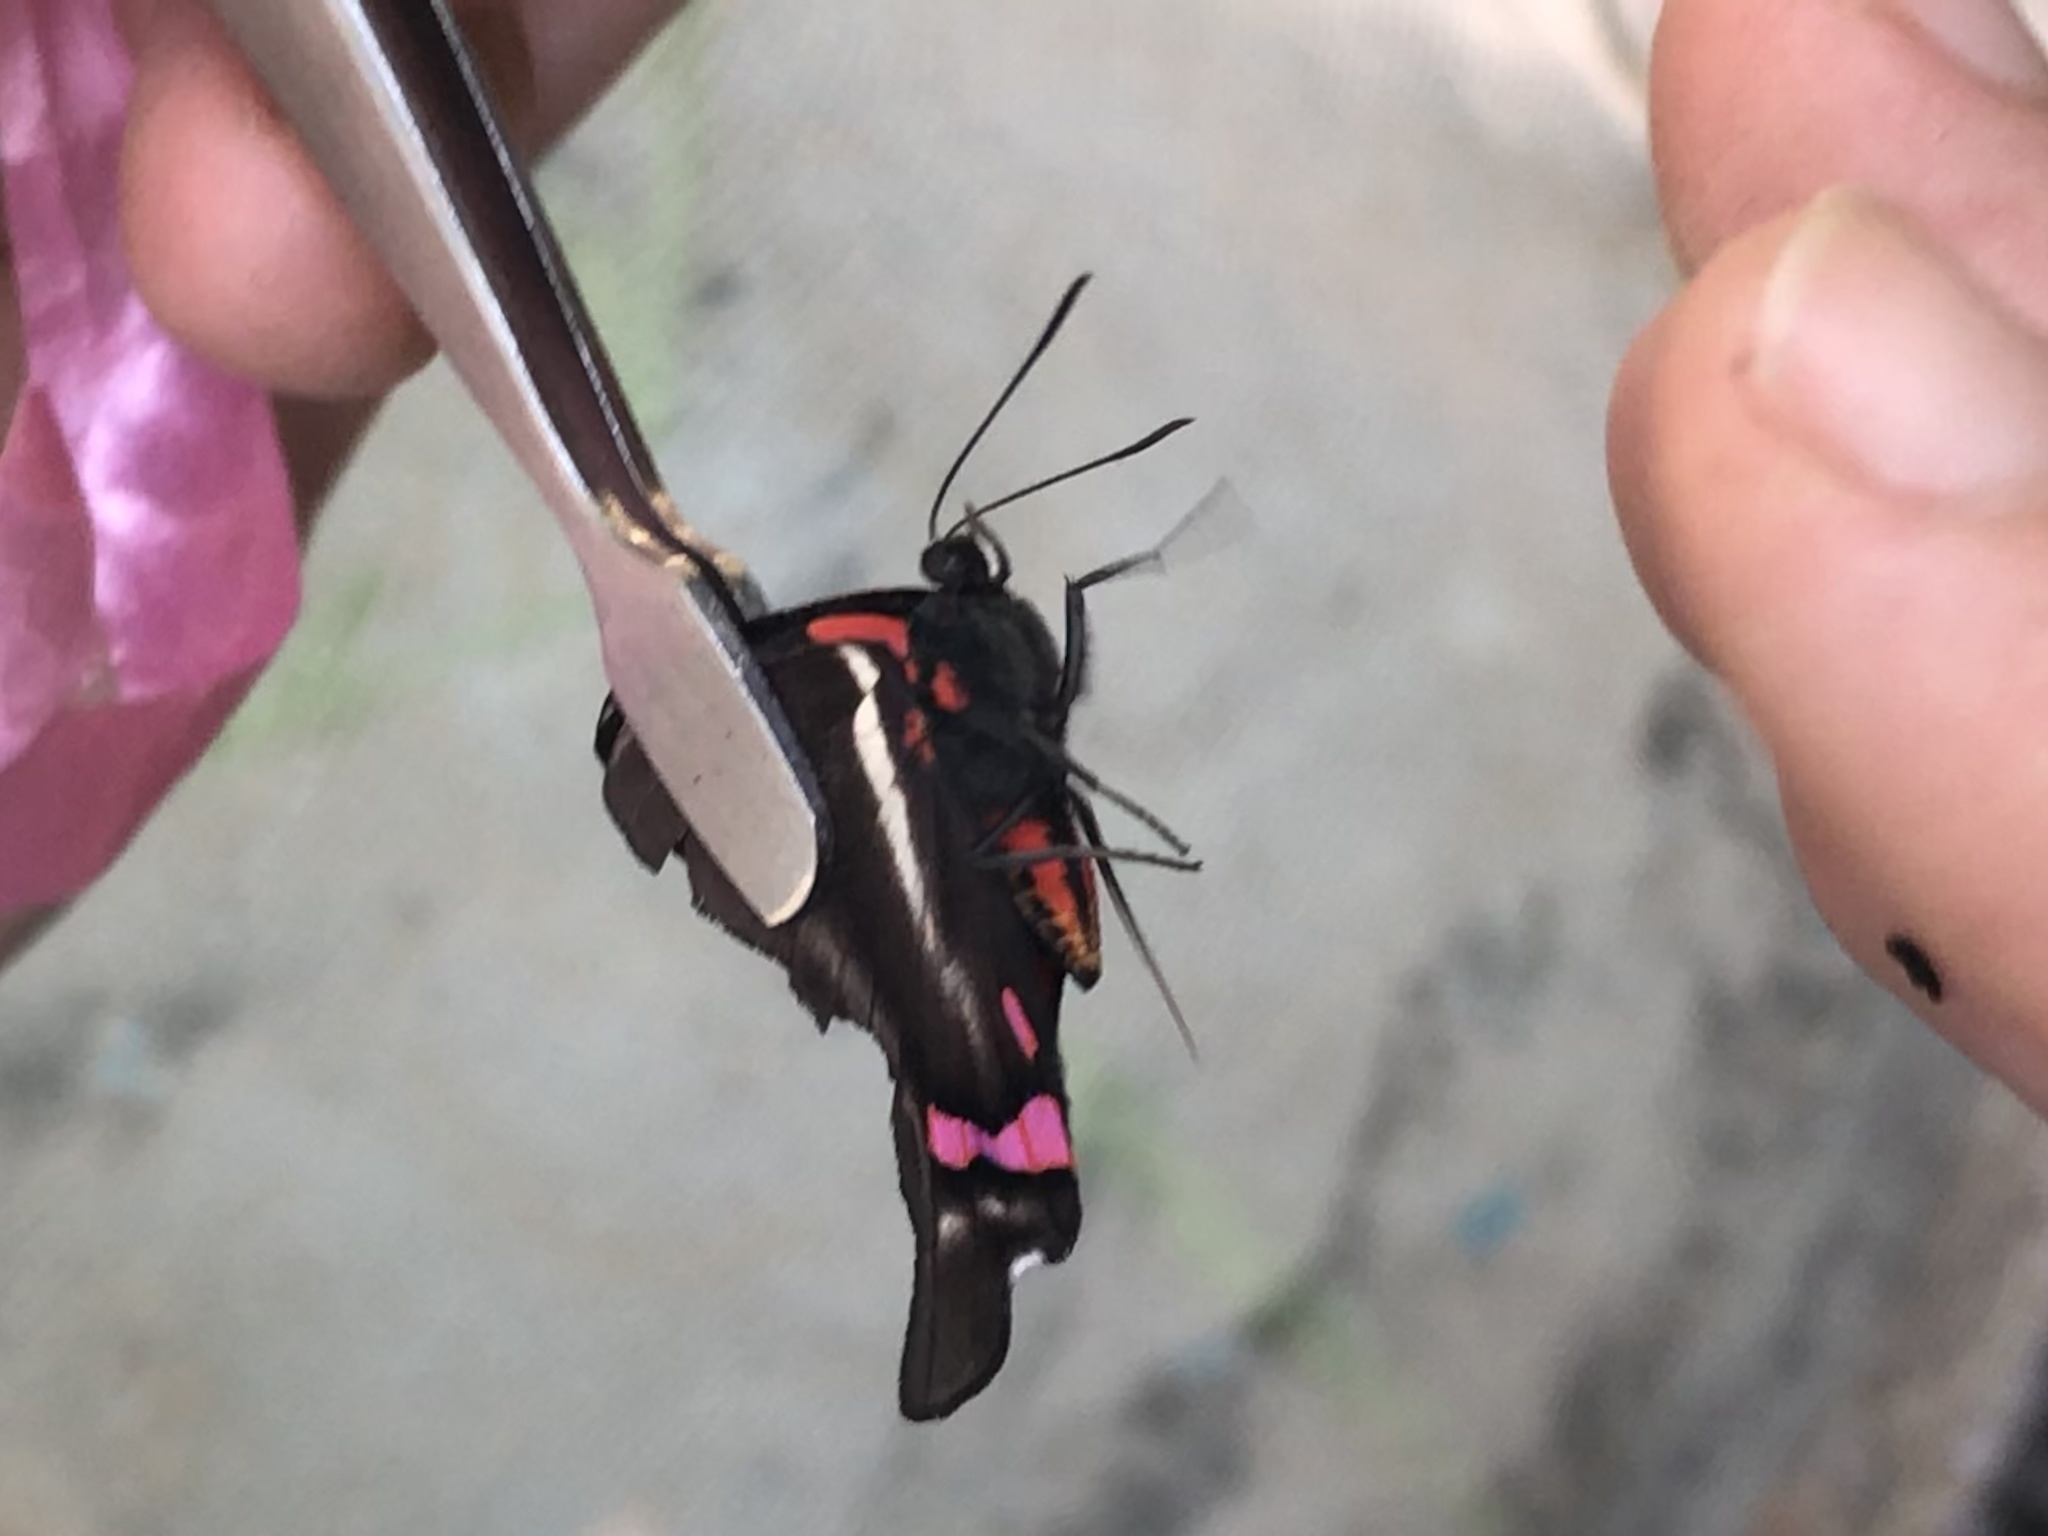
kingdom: Animalia
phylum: Arthropoda
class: Insecta
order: Lepidoptera
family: Riodinidae
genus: Rhetus
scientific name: Rhetus periander
